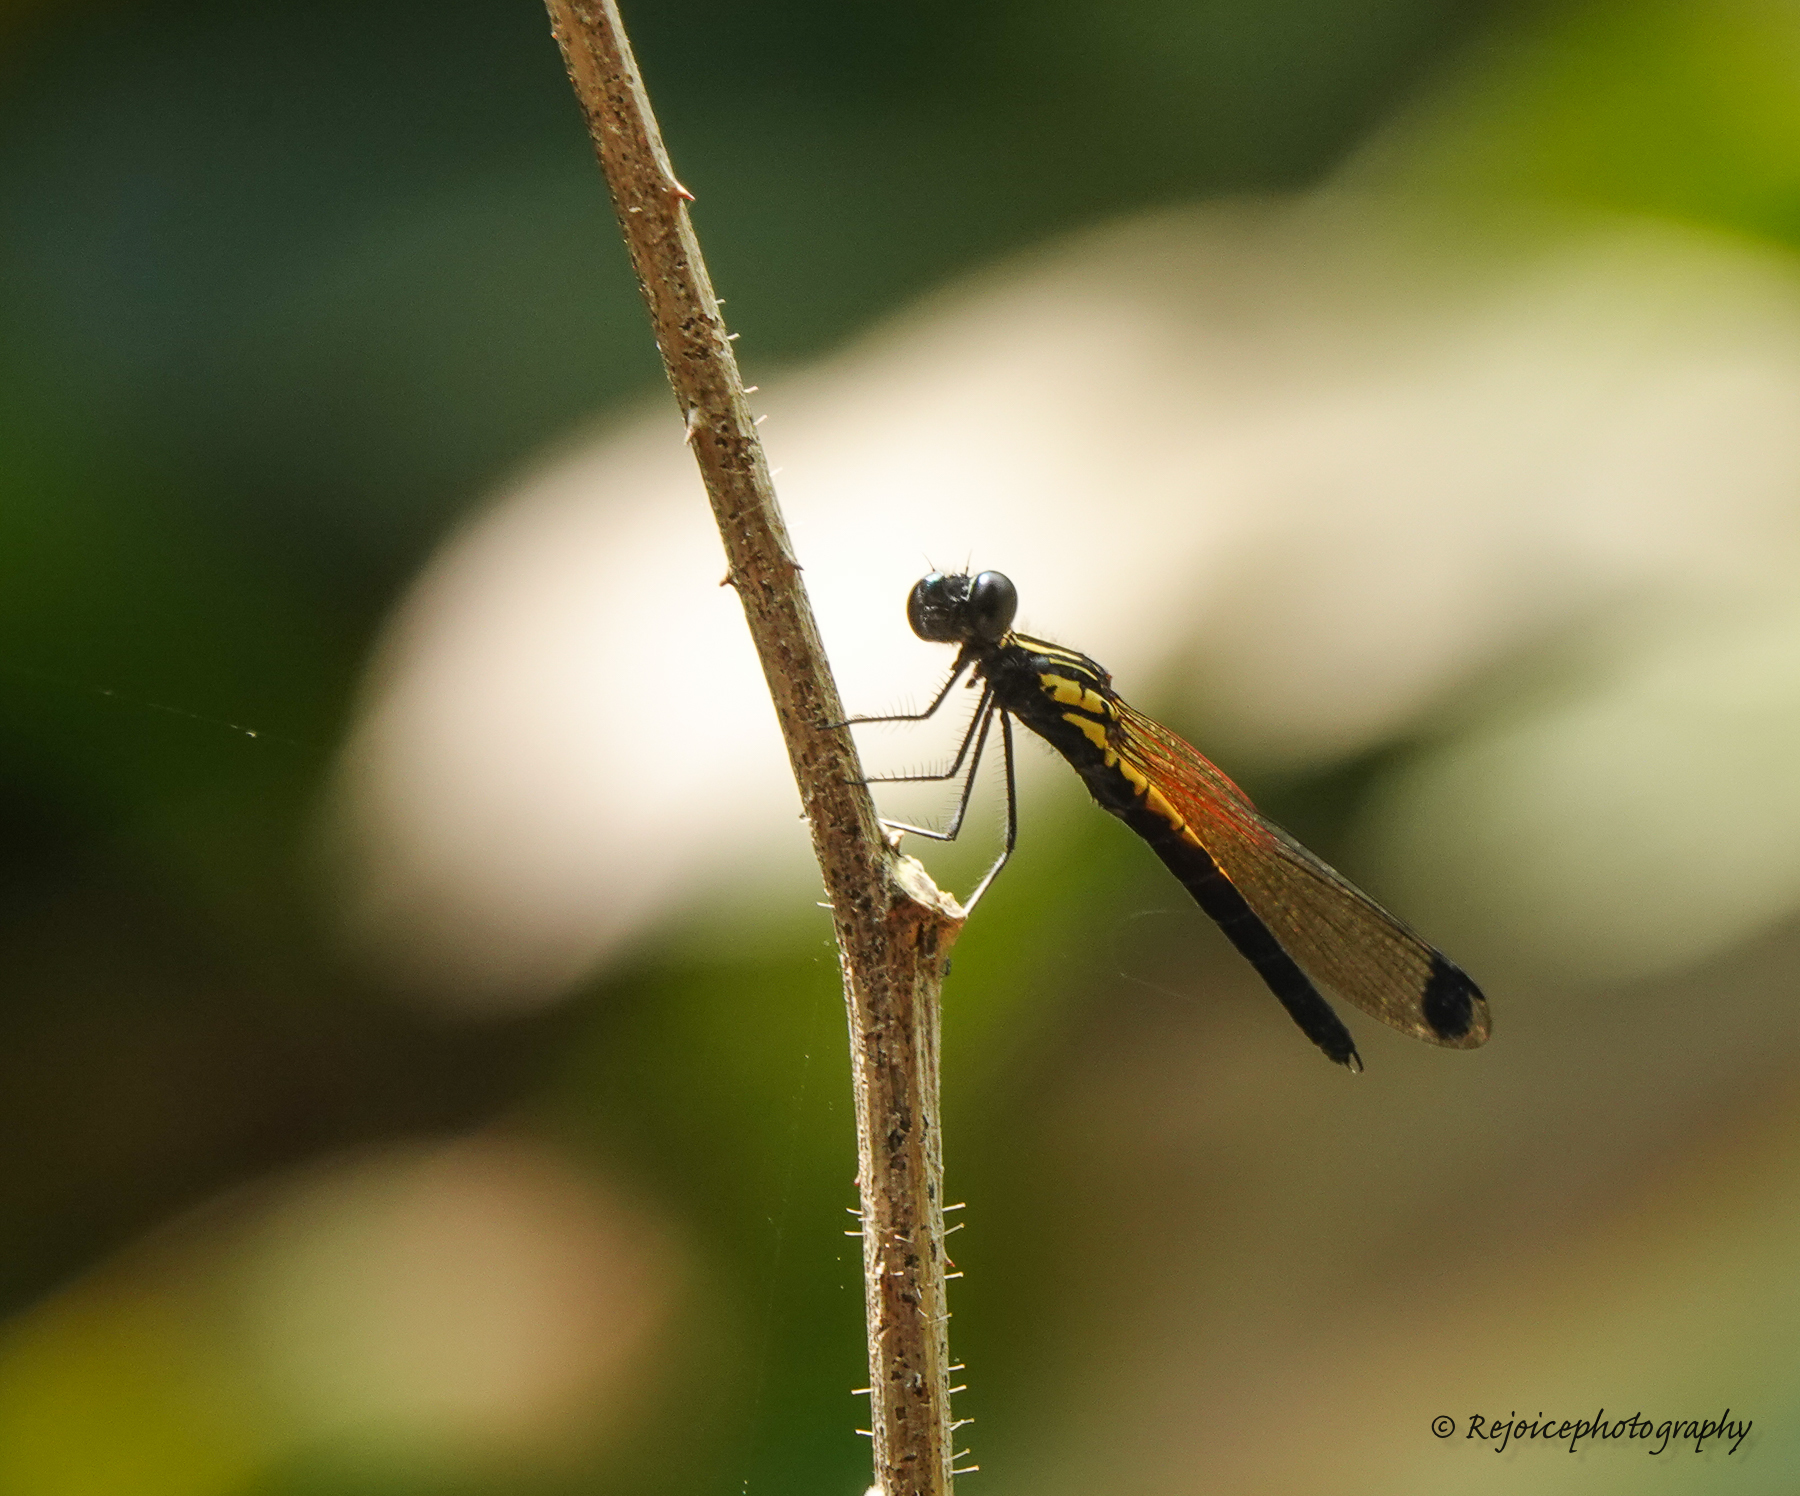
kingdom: Animalia
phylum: Arthropoda
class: Insecta
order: Odonata
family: Chlorocyphidae
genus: Libellago
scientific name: Libellago lineata
